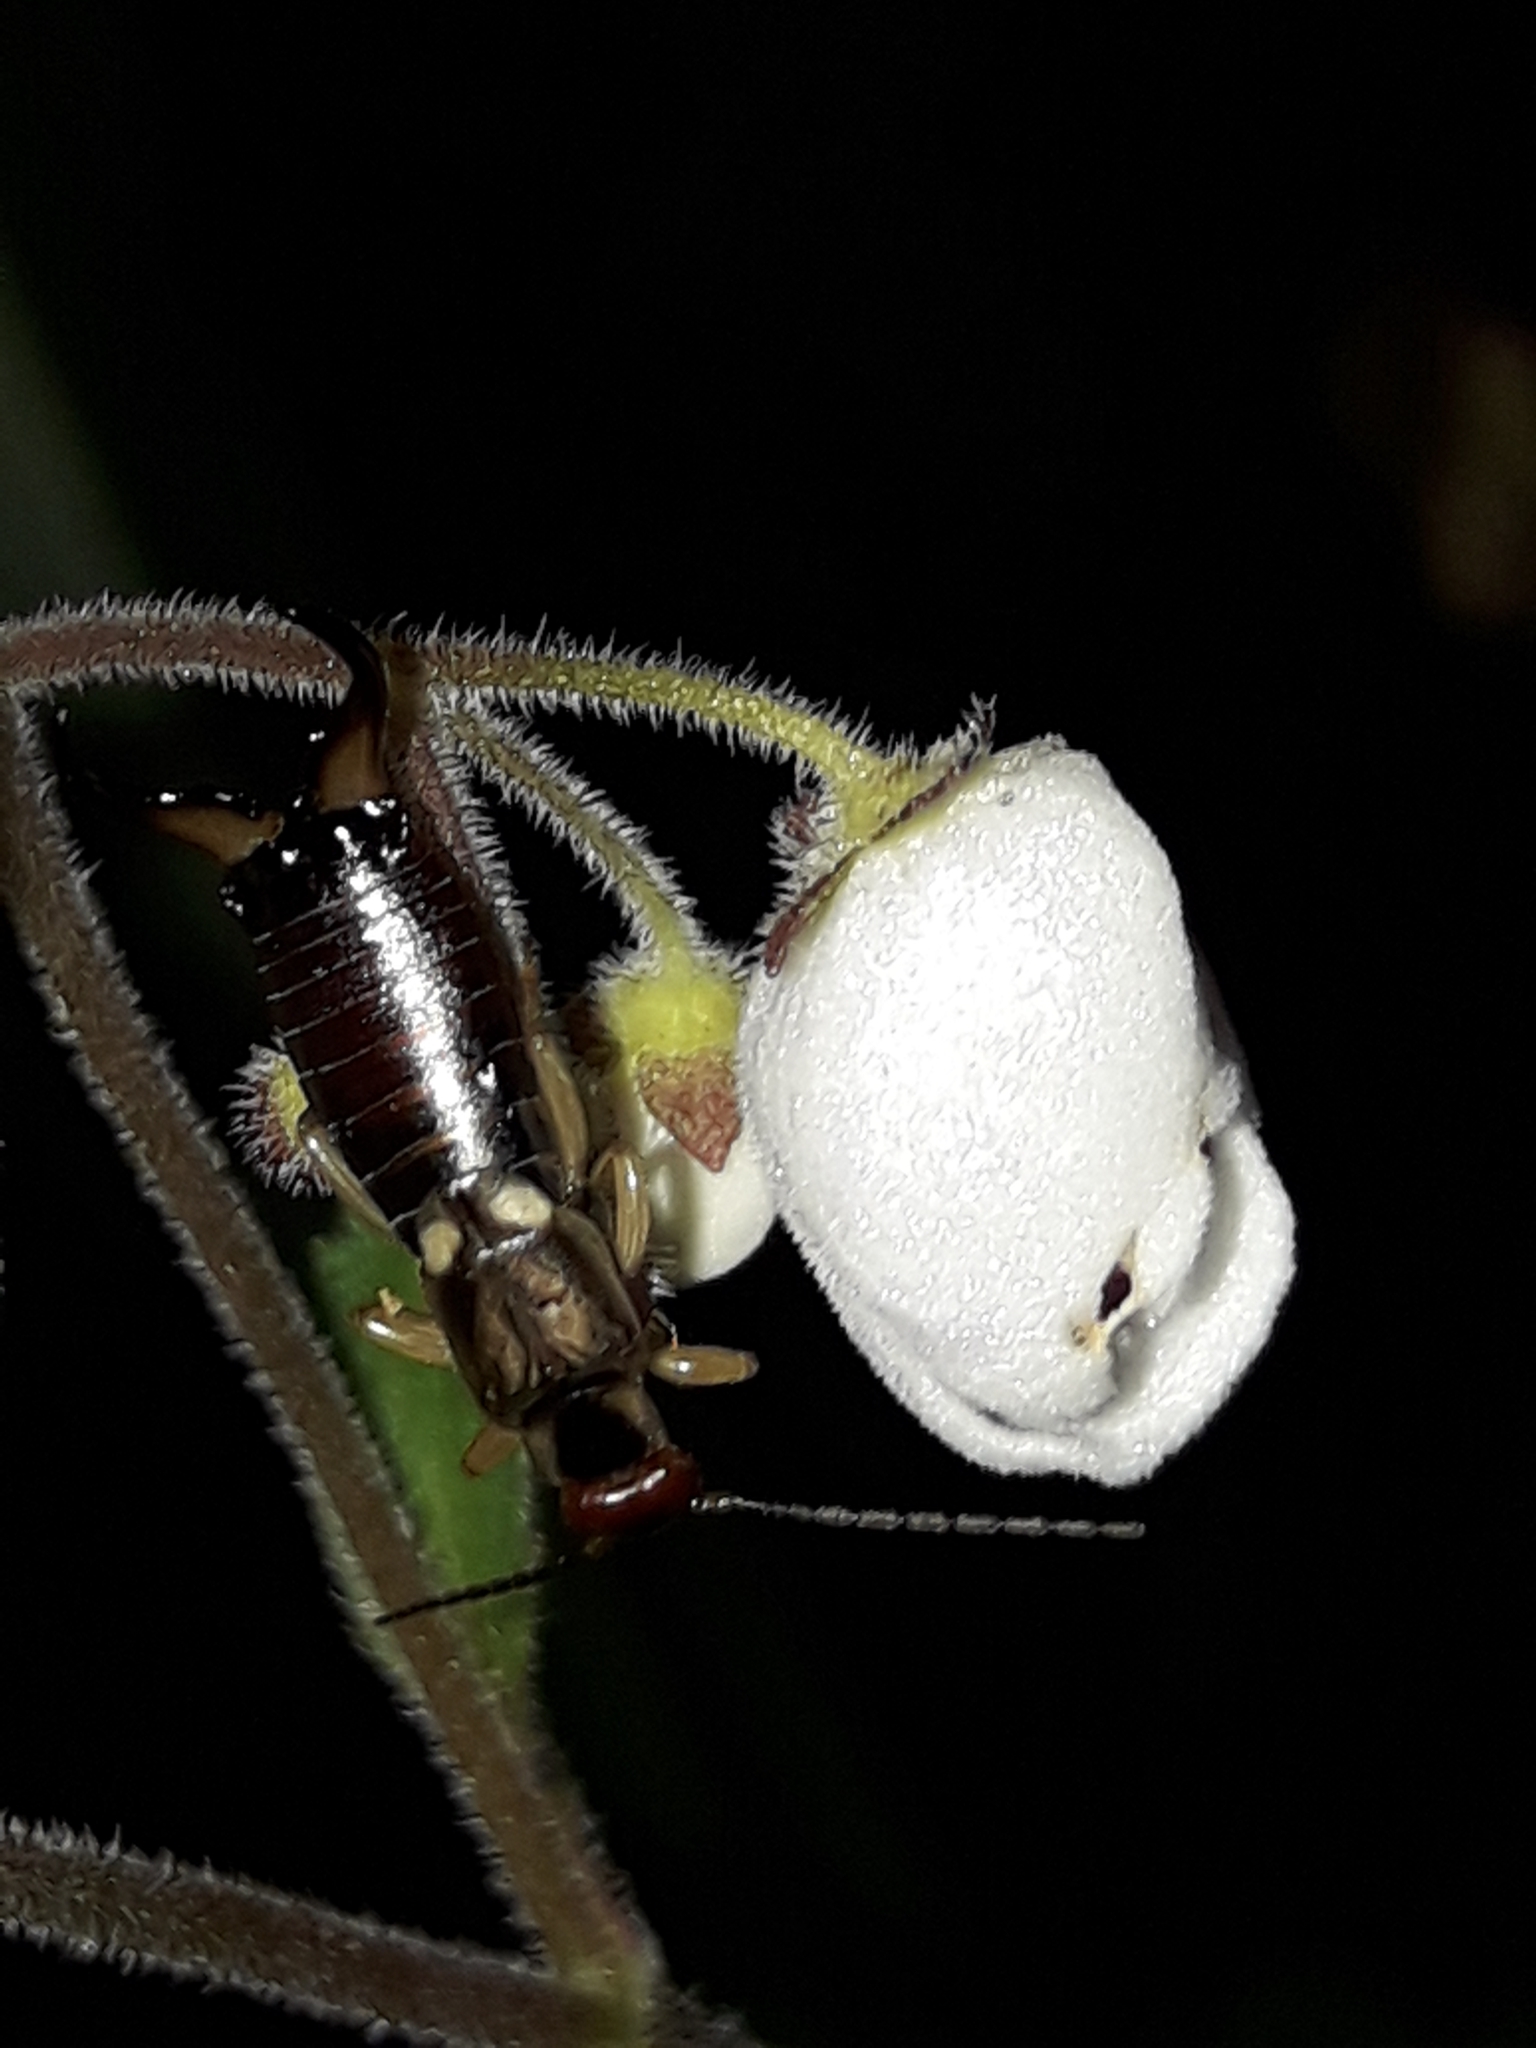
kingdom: Animalia
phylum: Arthropoda
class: Insecta
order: Dermaptera
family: Forficulidae
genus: Forficula
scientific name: Forficula
